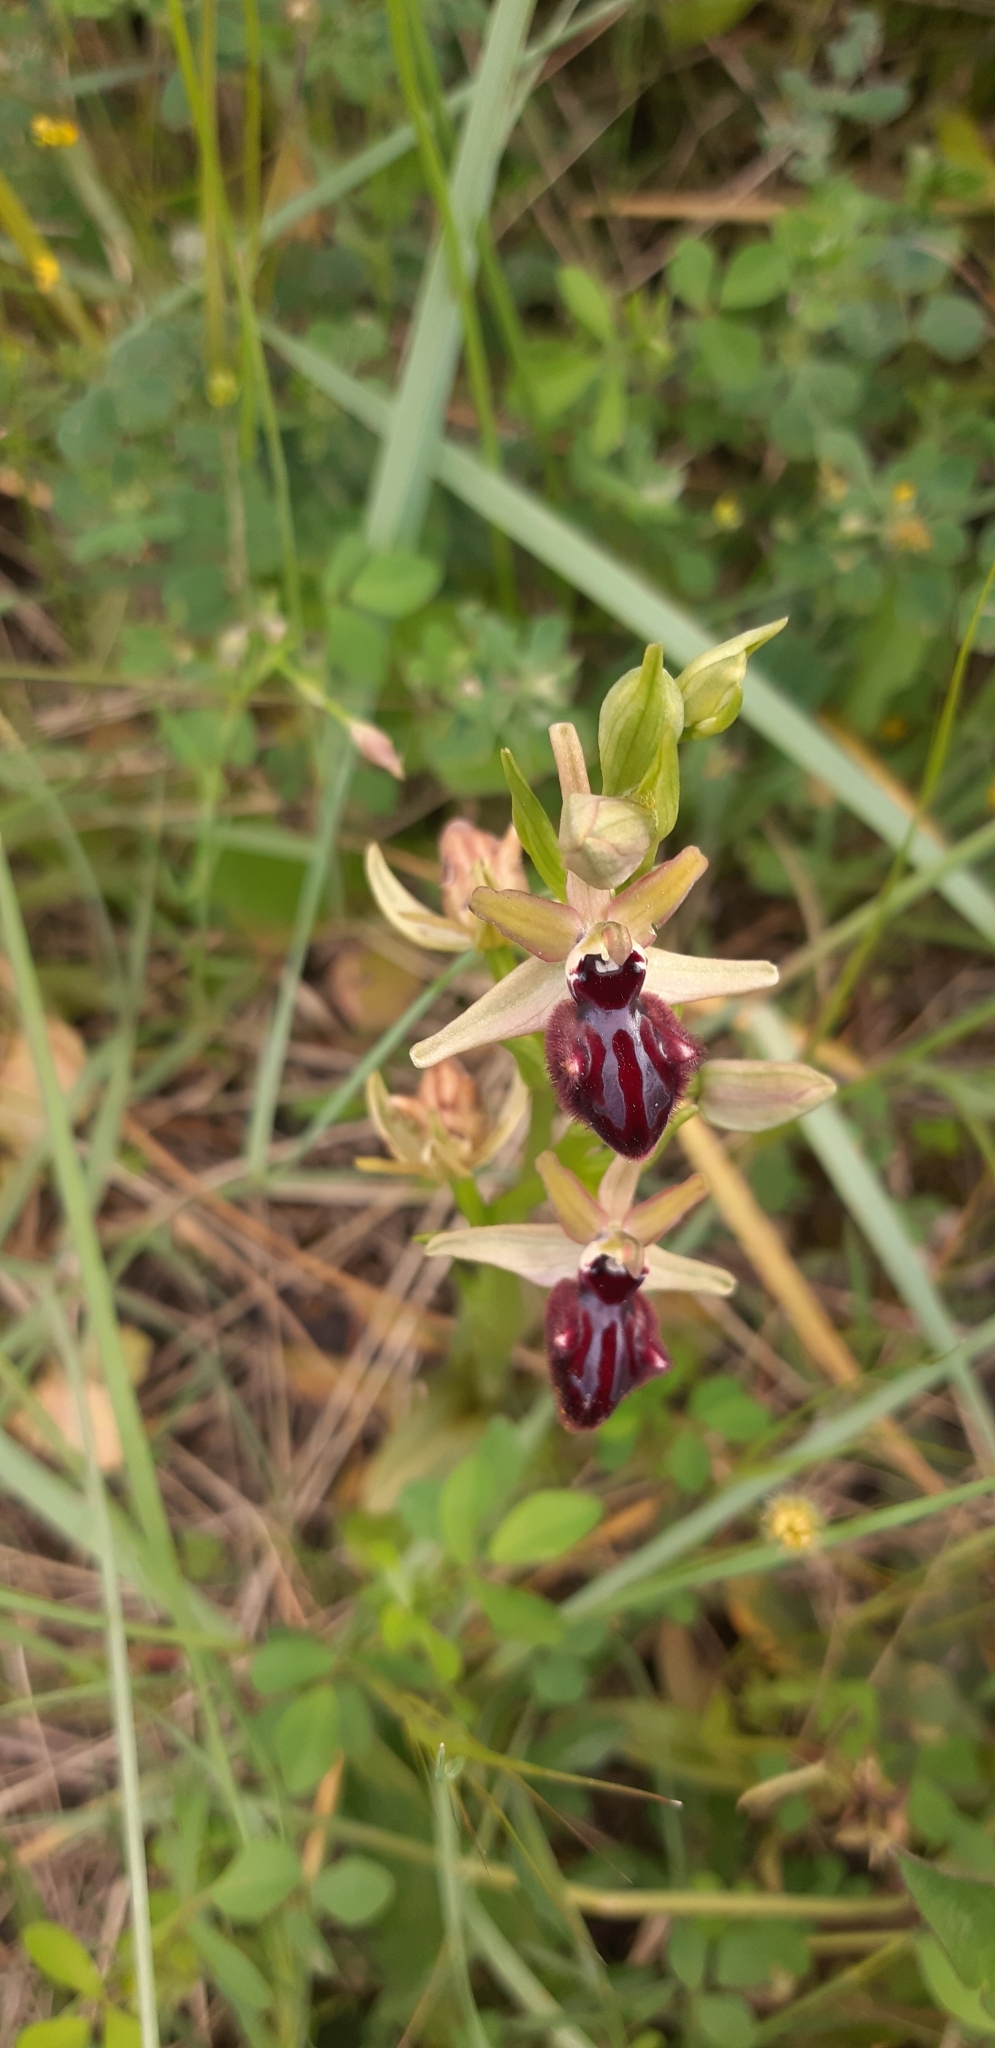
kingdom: Plantae
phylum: Tracheophyta
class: Liliopsida
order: Asparagales
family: Orchidaceae
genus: Ophrys
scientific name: Ophrys sphegodes
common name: Early spider-orchid
